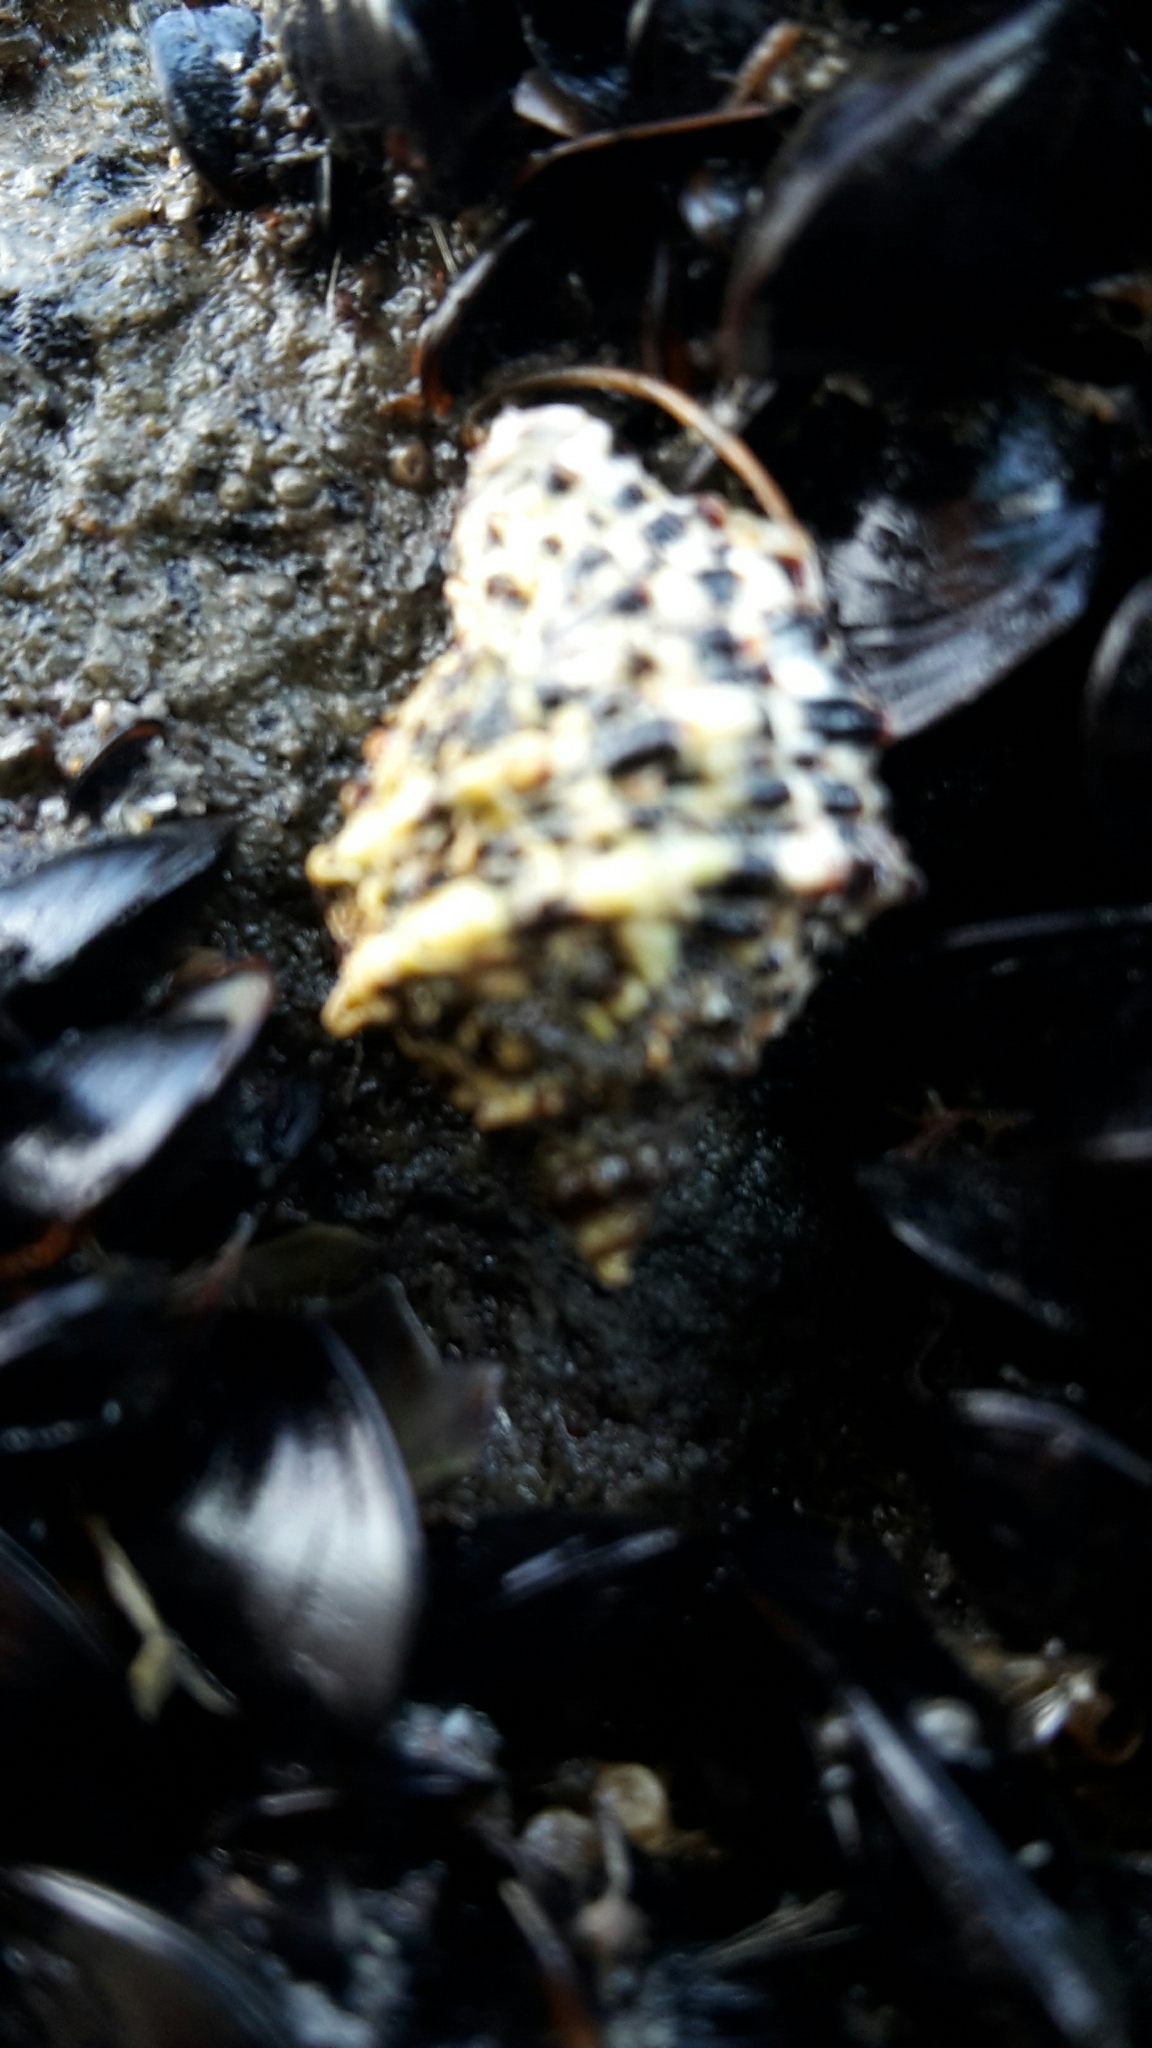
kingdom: Animalia
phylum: Mollusca
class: Gastropoda
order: Neogastropoda
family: Muricidae
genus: Haustrum
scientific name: Haustrum scobina
